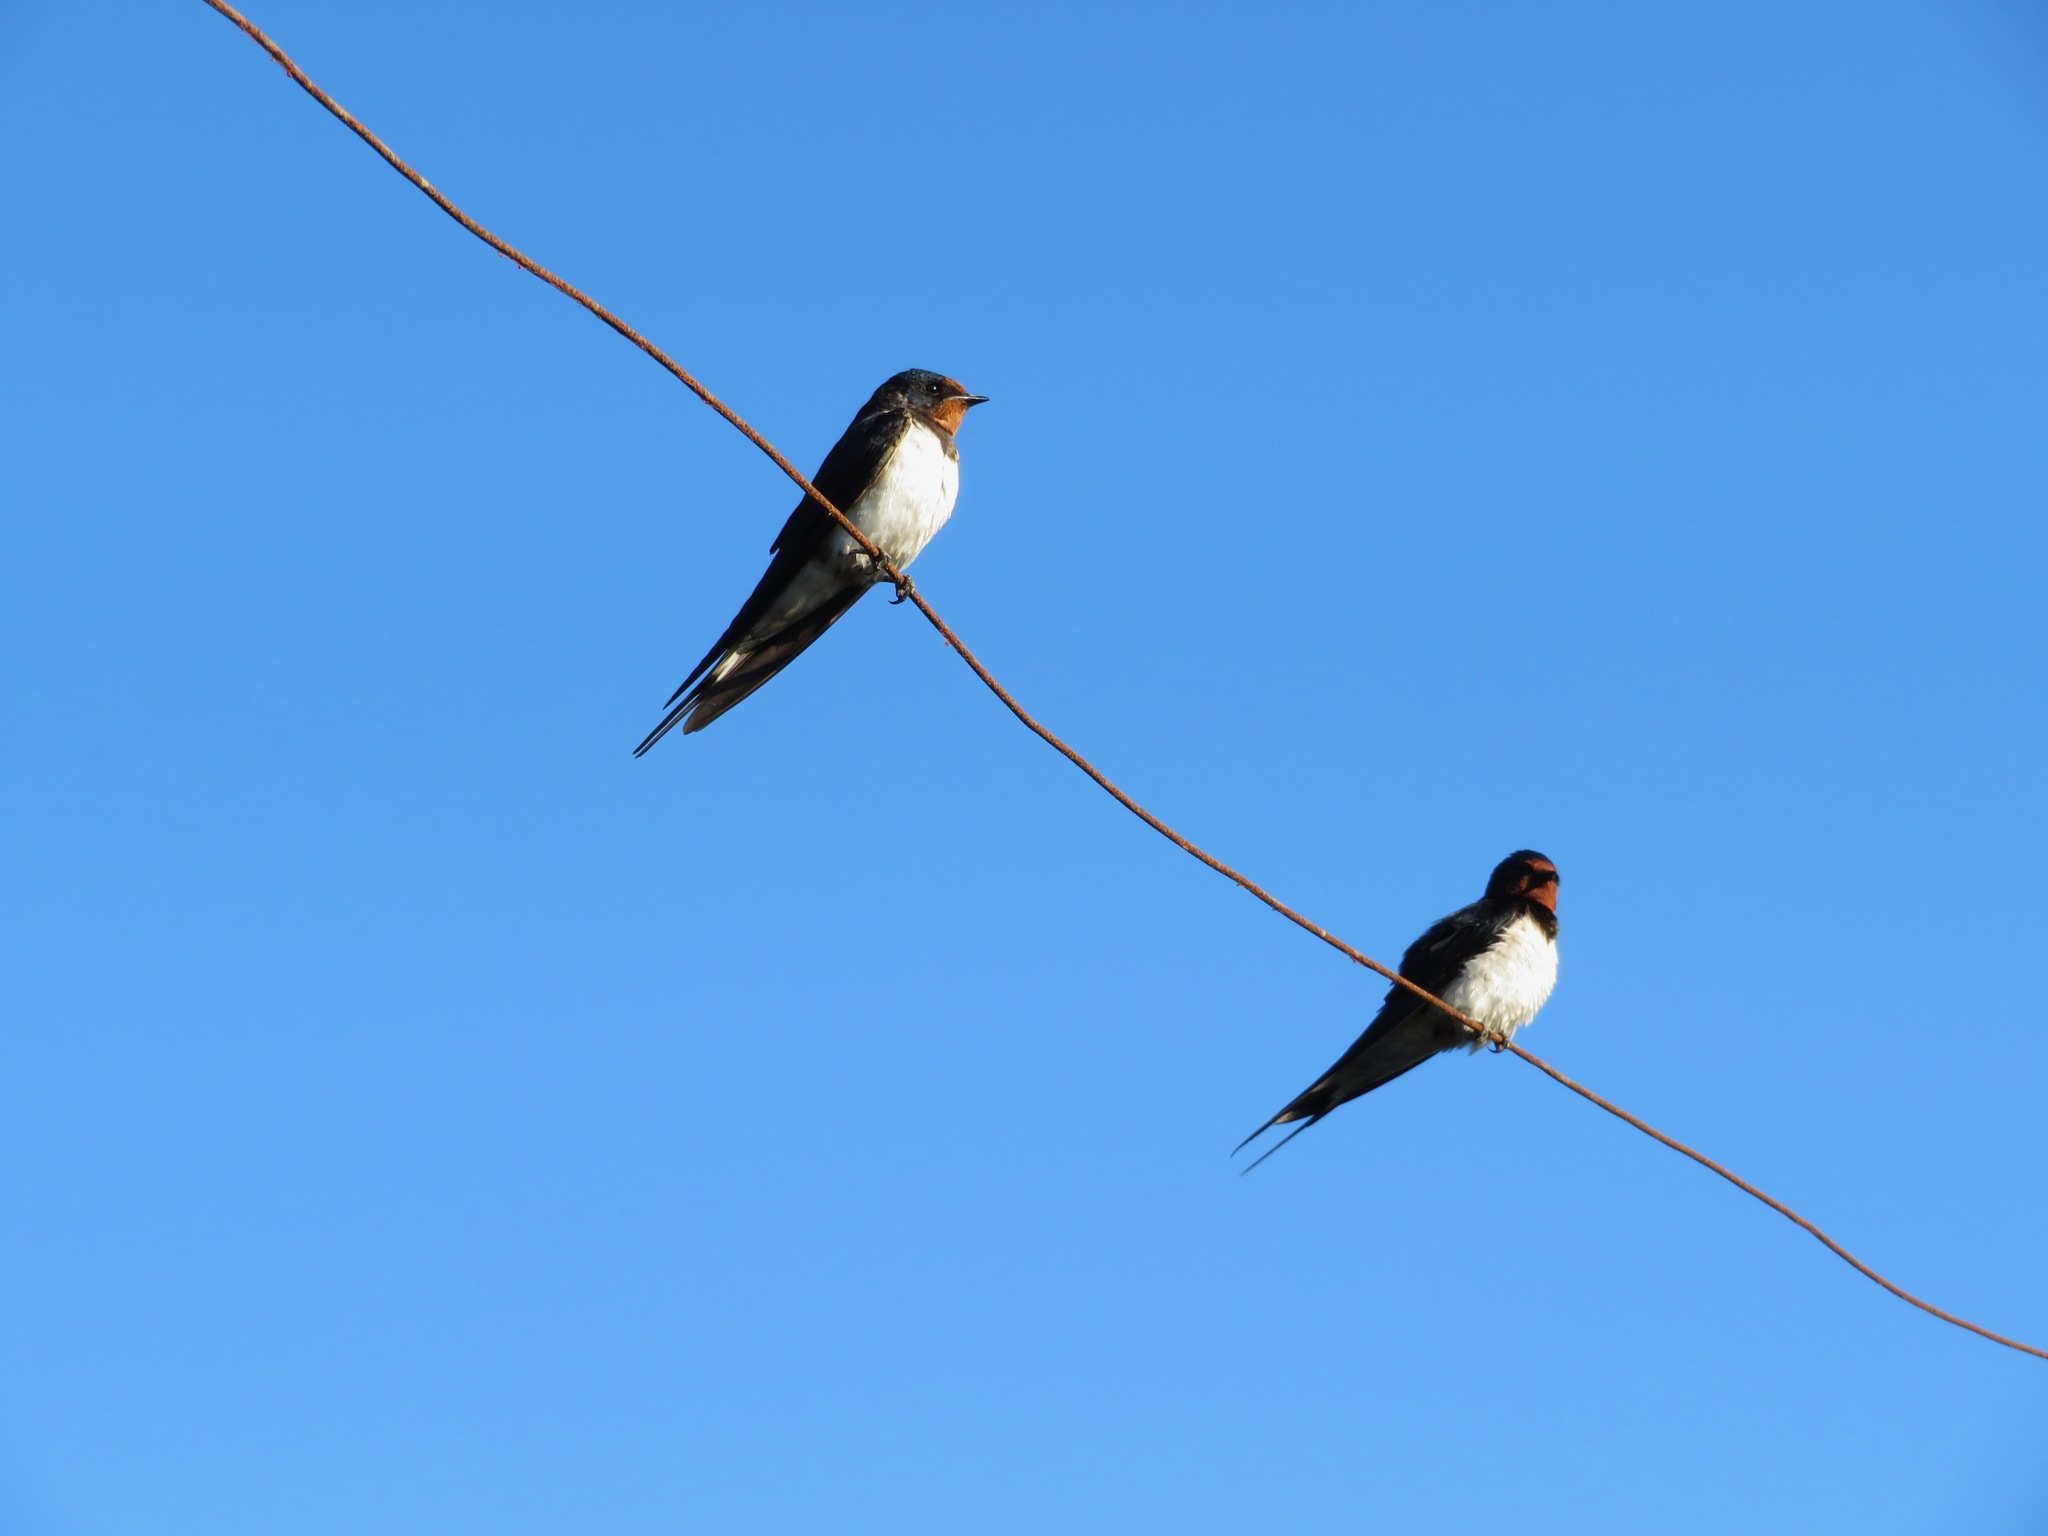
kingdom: Animalia
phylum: Chordata
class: Aves
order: Passeriformes
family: Hirundinidae
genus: Hirundo
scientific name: Hirundo rustica
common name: Barn swallow
